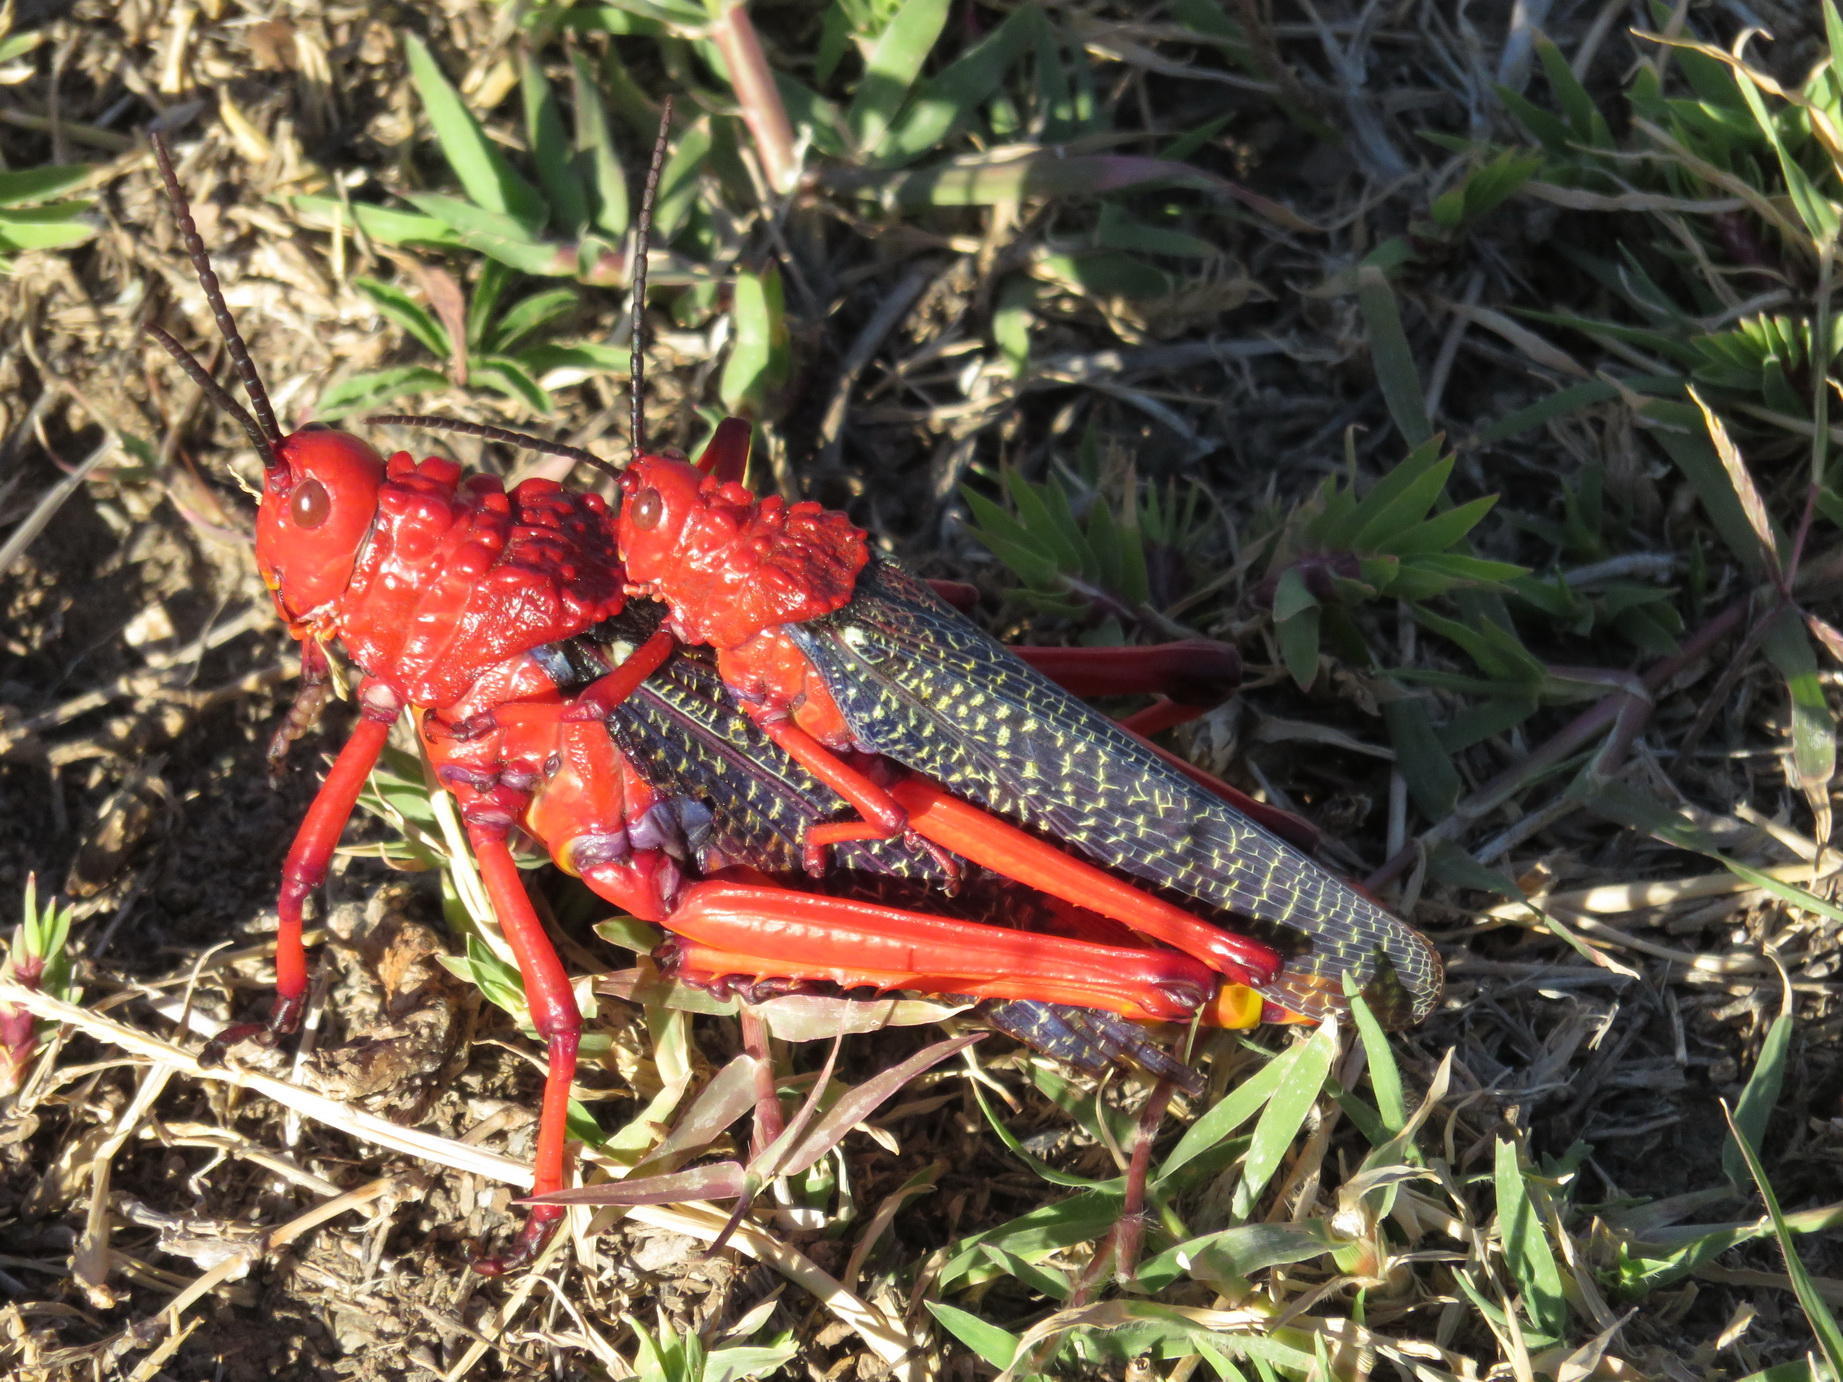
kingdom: Animalia
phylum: Arthropoda
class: Insecta
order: Orthoptera
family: Pyrgomorphidae
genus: Phymateus
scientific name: Phymateus morbillosus
